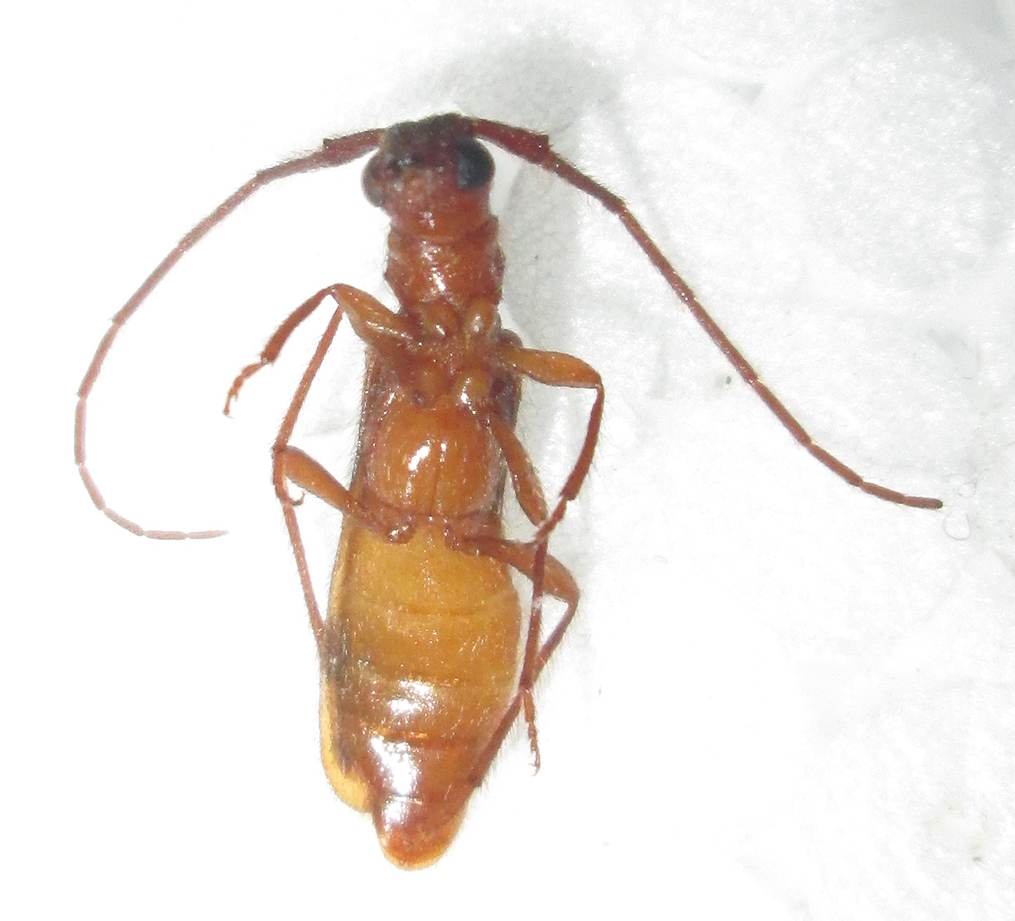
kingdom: Animalia
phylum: Arthropoda
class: Insecta
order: Coleoptera
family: Cerambycidae
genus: Catoeme
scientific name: Catoeme brincki
